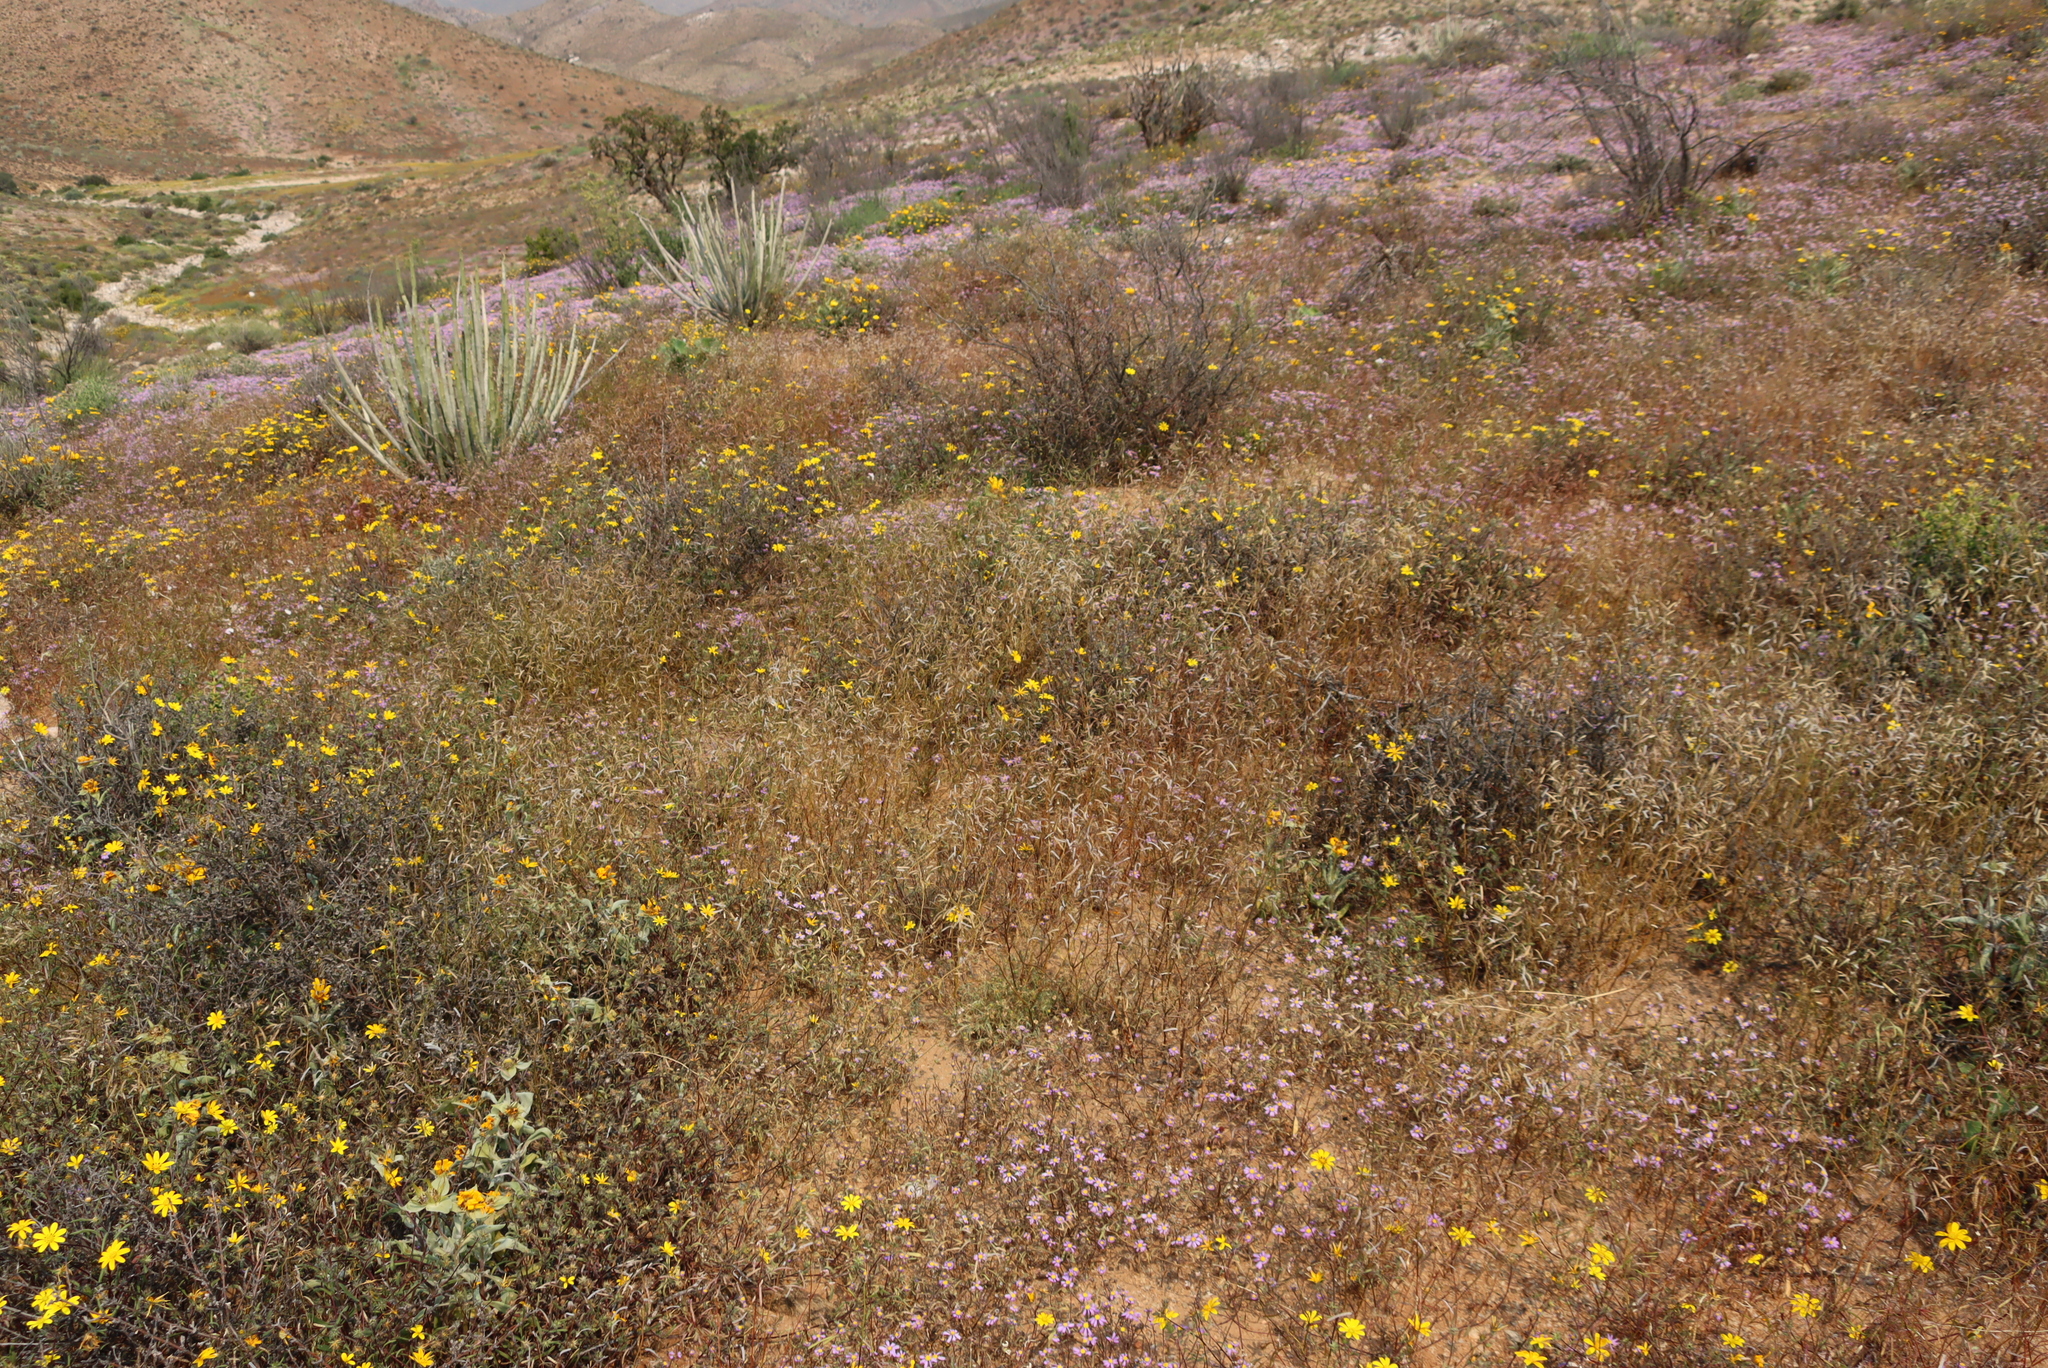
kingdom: Plantae
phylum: Tracheophyta
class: Magnoliopsida
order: Asterales
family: Asteraceae
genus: Amellus
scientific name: Amellus nanus
